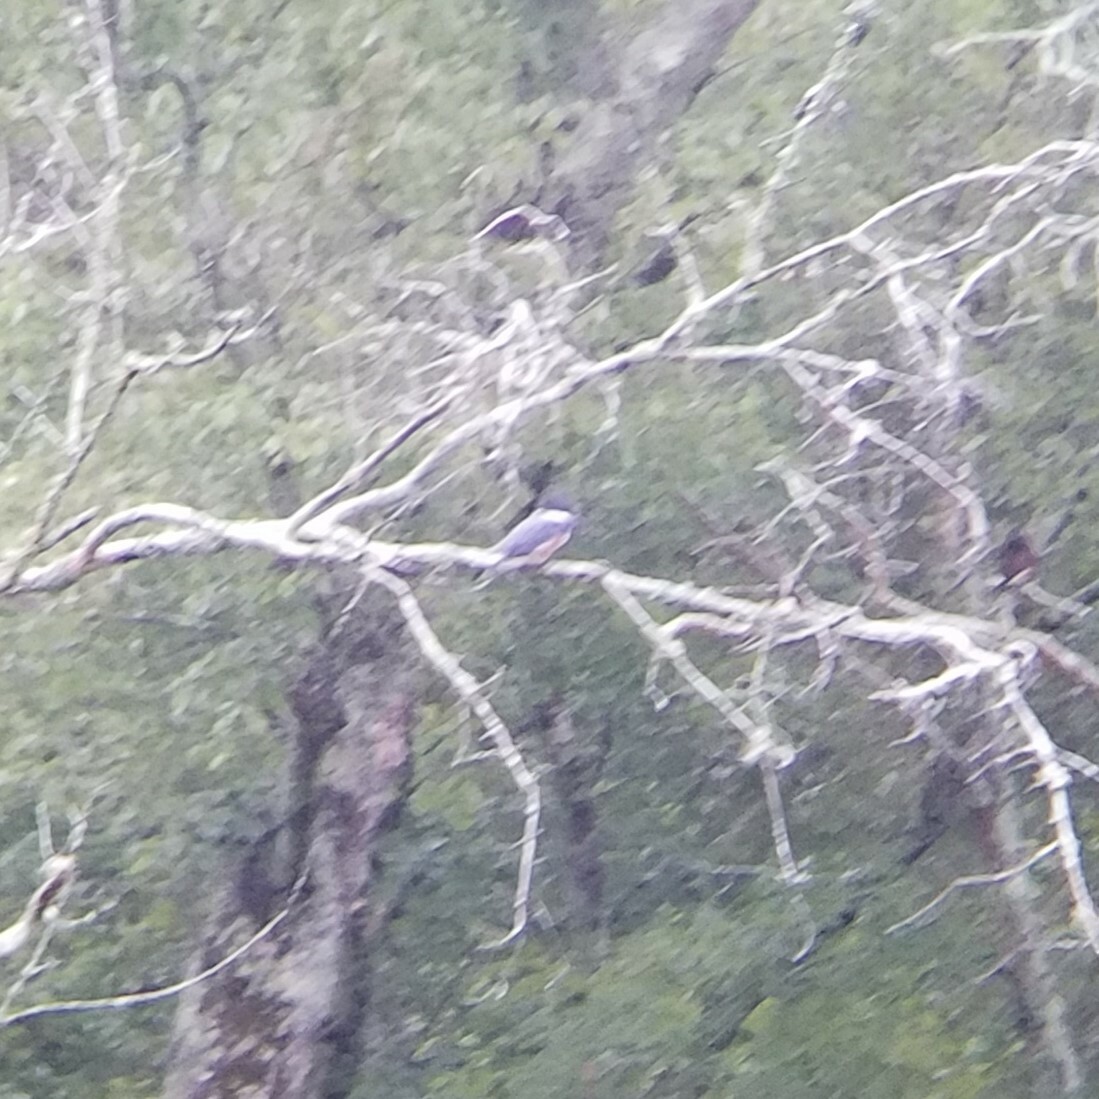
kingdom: Animalia
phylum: Chordata
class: Aves
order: Coraciiformes
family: Alcedinidae
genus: Megaceryle
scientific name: Megaceryle alcyon
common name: Belted kingfisher
